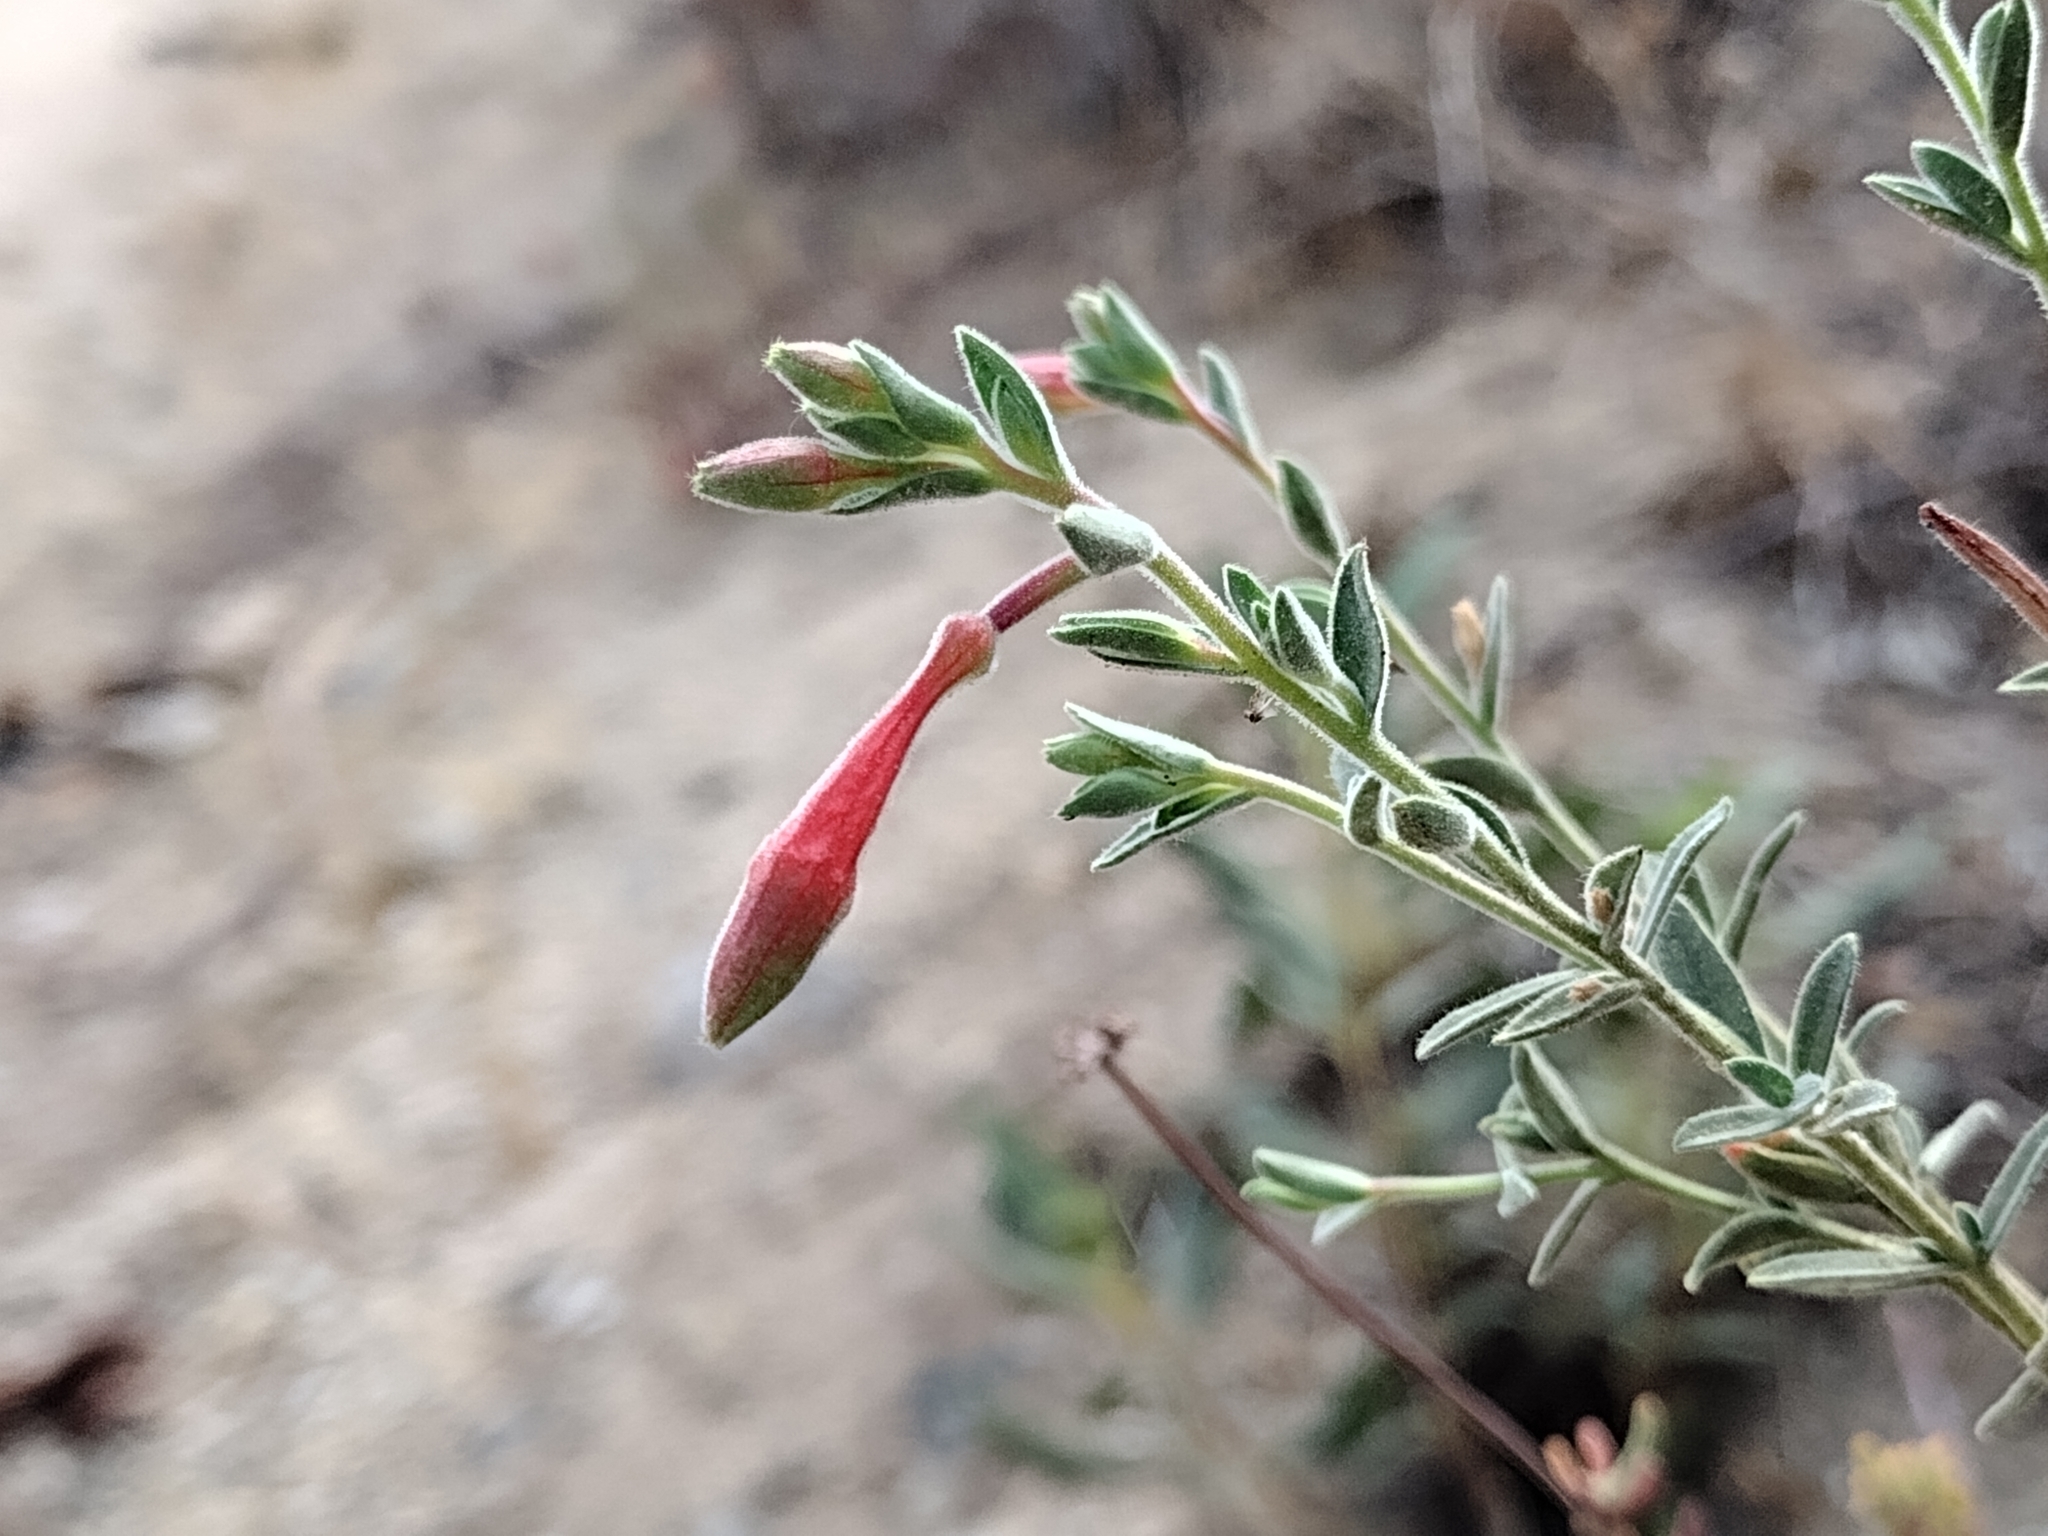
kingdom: Plantae
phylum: Tracheophyta
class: Magnoliopsida
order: Myrtales
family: Onagraceae
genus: Epilobium
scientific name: Epilobium canum
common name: California-fuchsia
